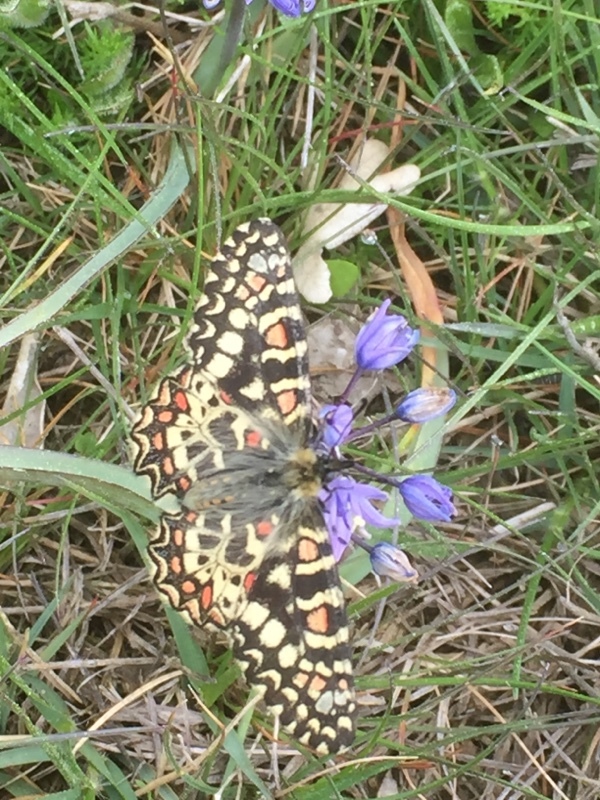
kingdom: Animalia
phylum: Arthropoda
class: Insecta
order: Lepidoptera
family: Papilionidae
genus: Zerynthia
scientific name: Zerynthia rumina
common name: Spanish festoon
